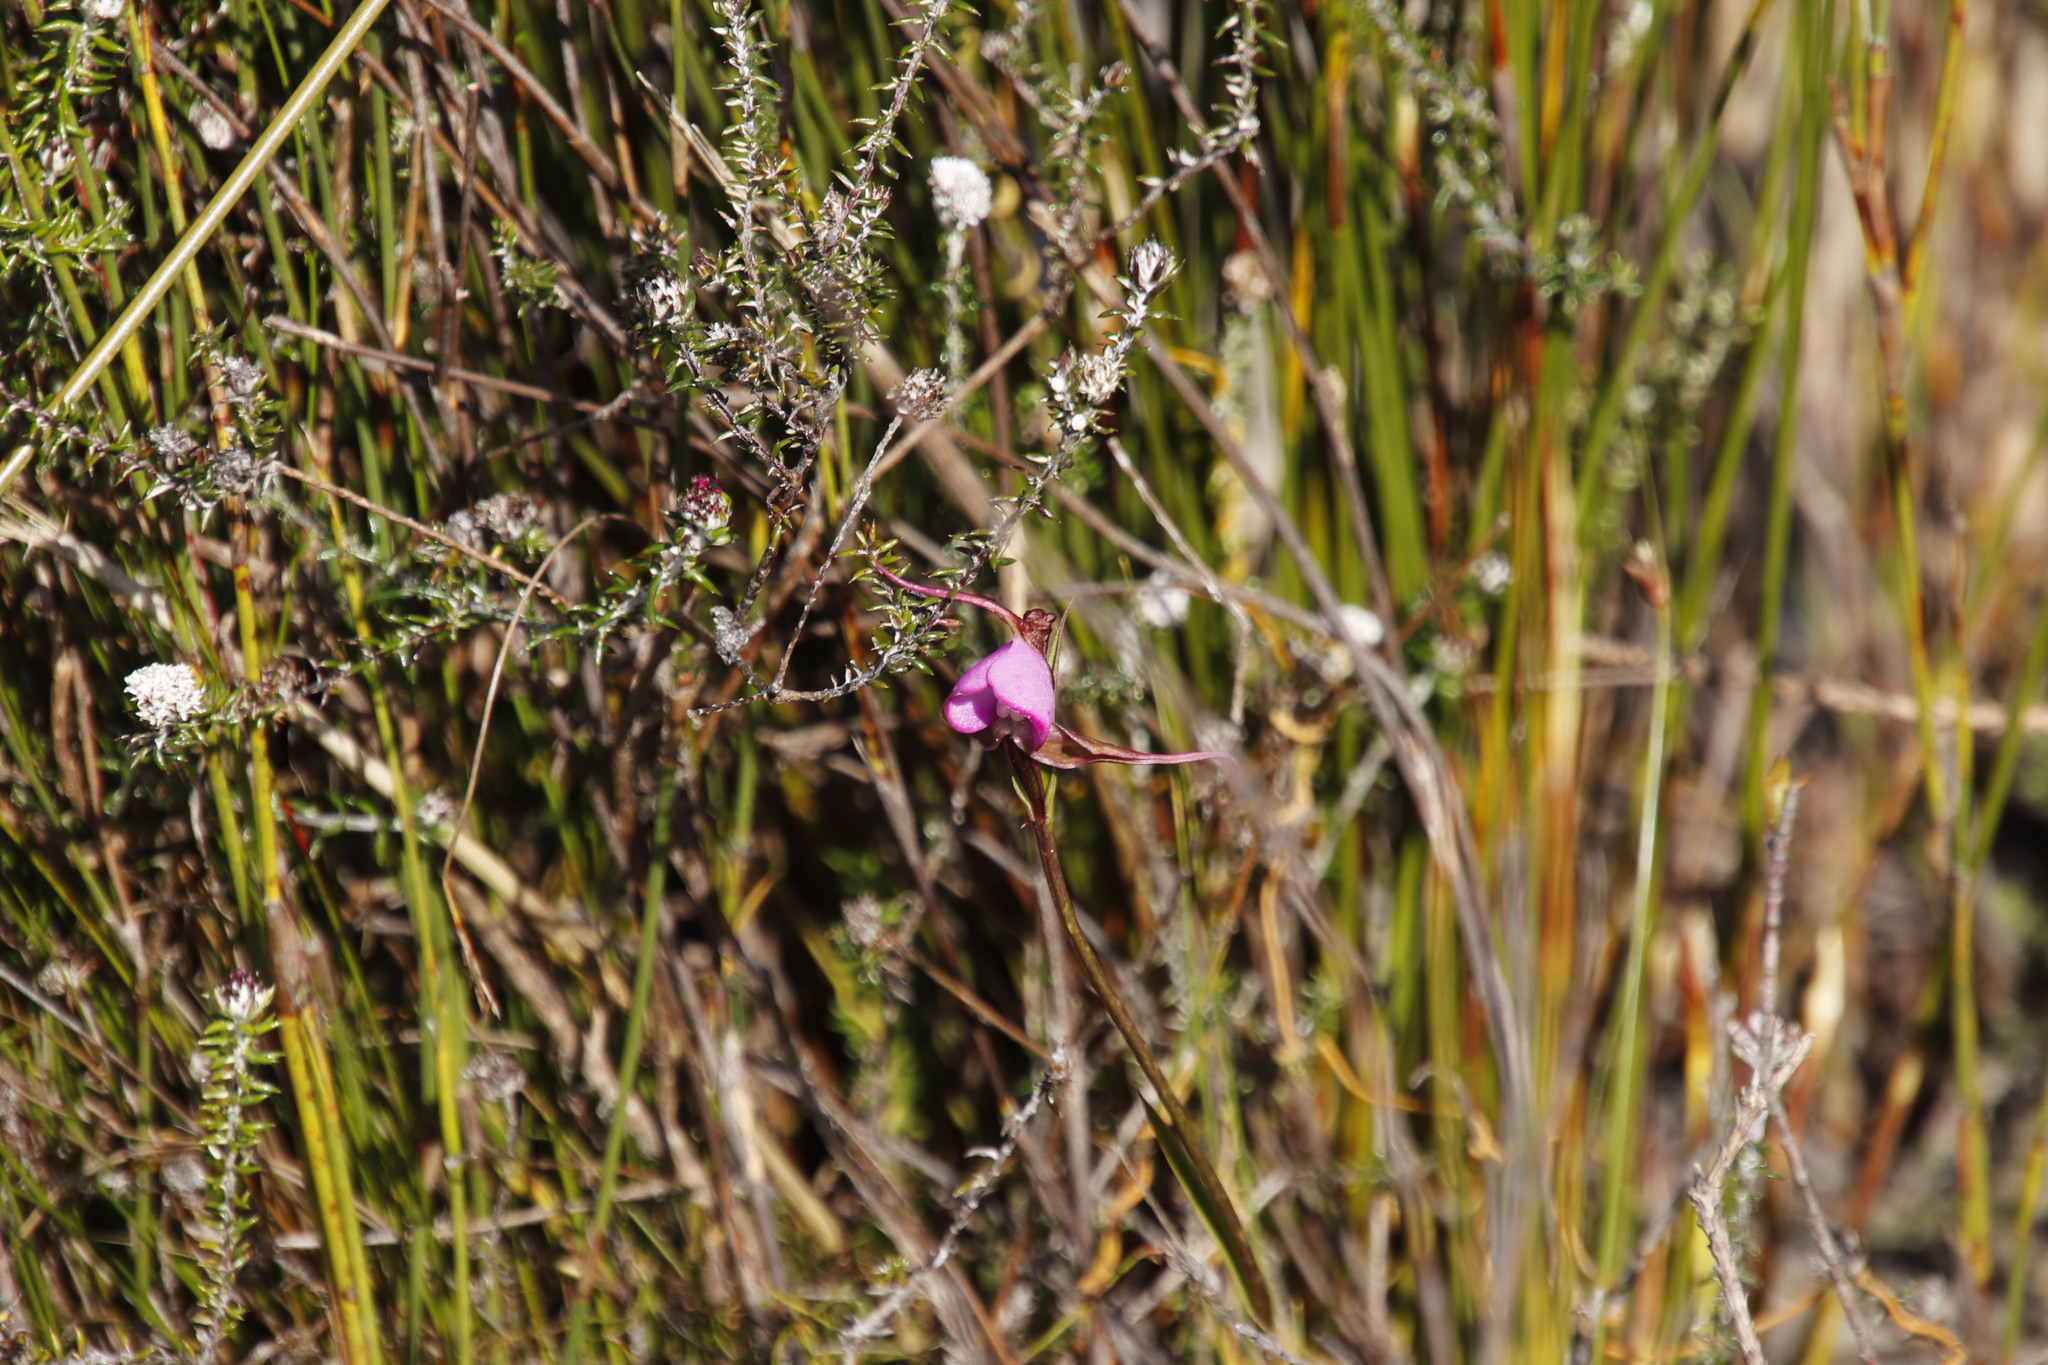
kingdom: Plantae
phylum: Tracheophyta
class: Liliopsida
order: Asparagales
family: Orchidaceae
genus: Disperis
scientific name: Disperis capensis
